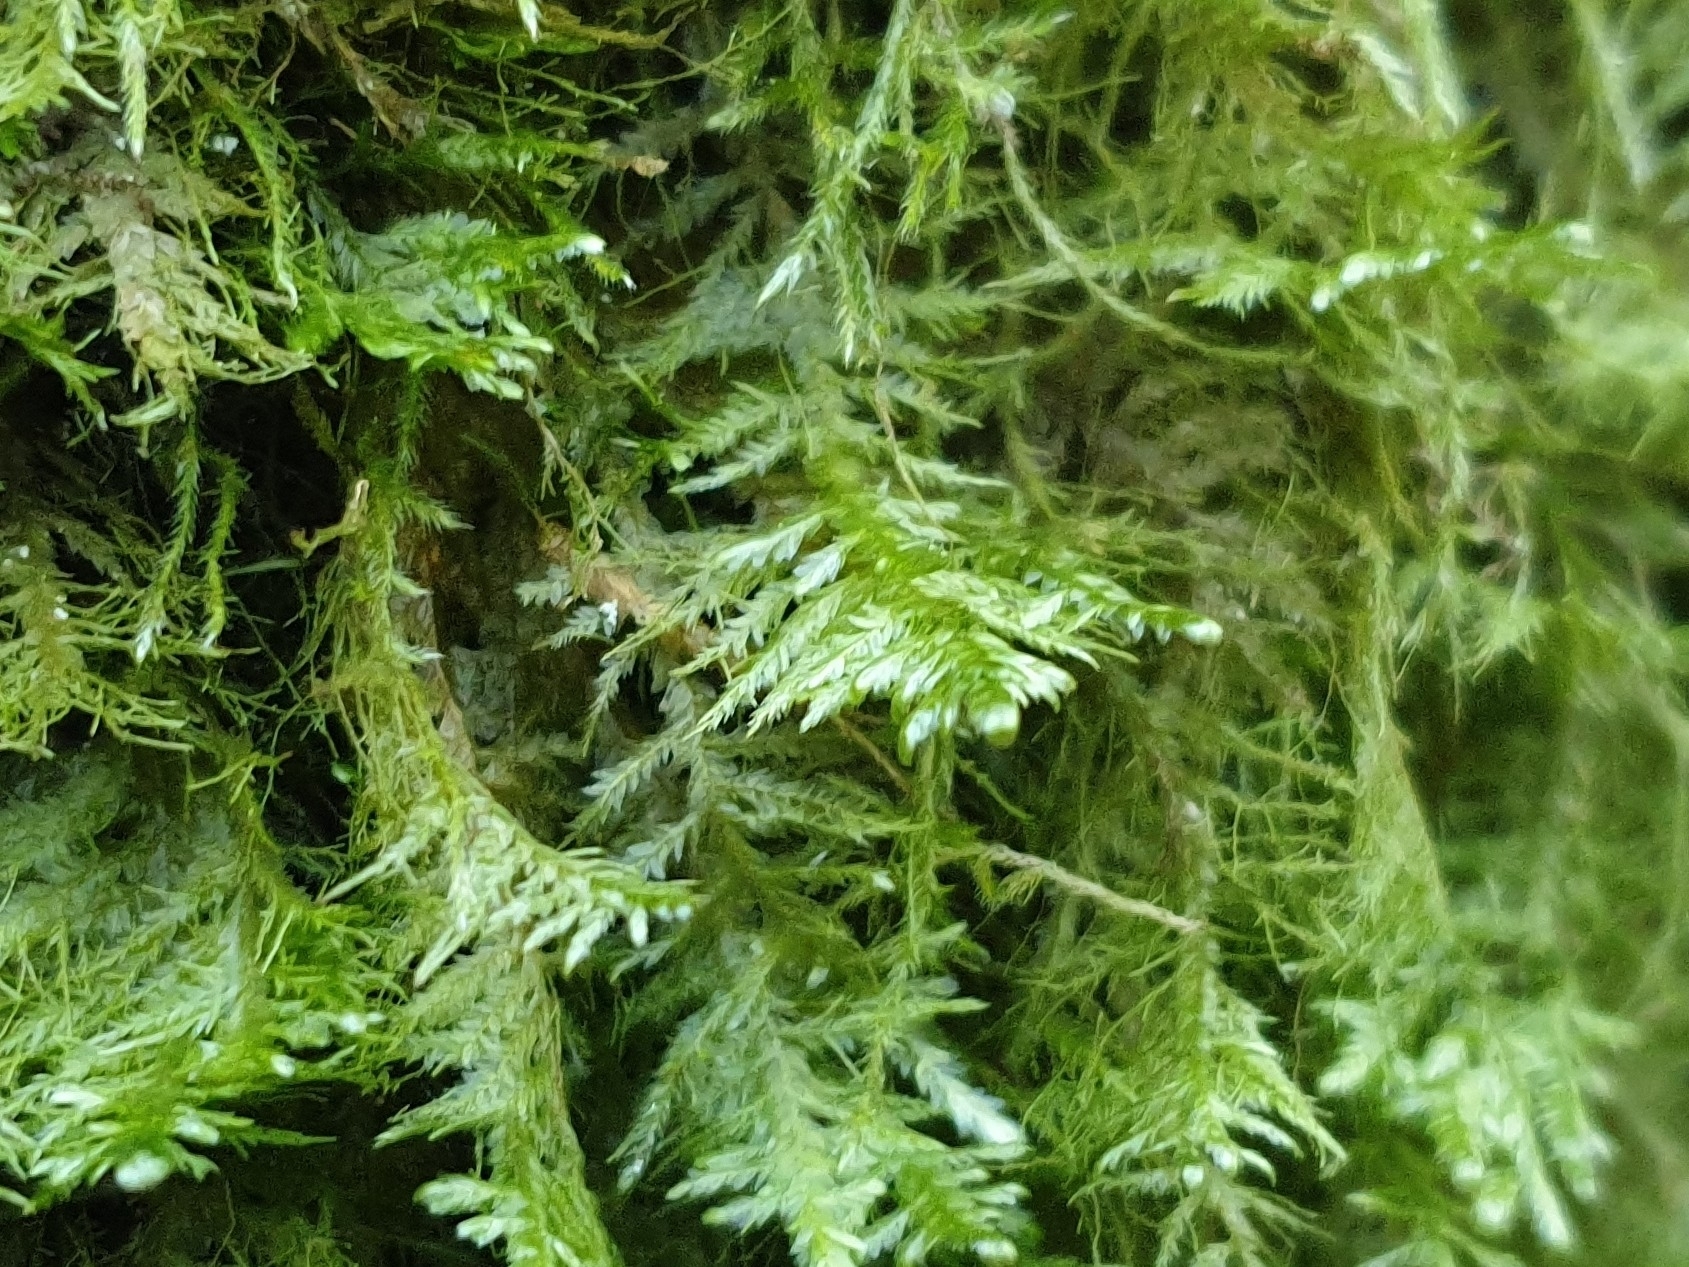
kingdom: Plantae
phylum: Bryophyta
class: Bryopsida
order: Hypnales
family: Neckeraceae
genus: Alleniella
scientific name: Alleniella complanata
